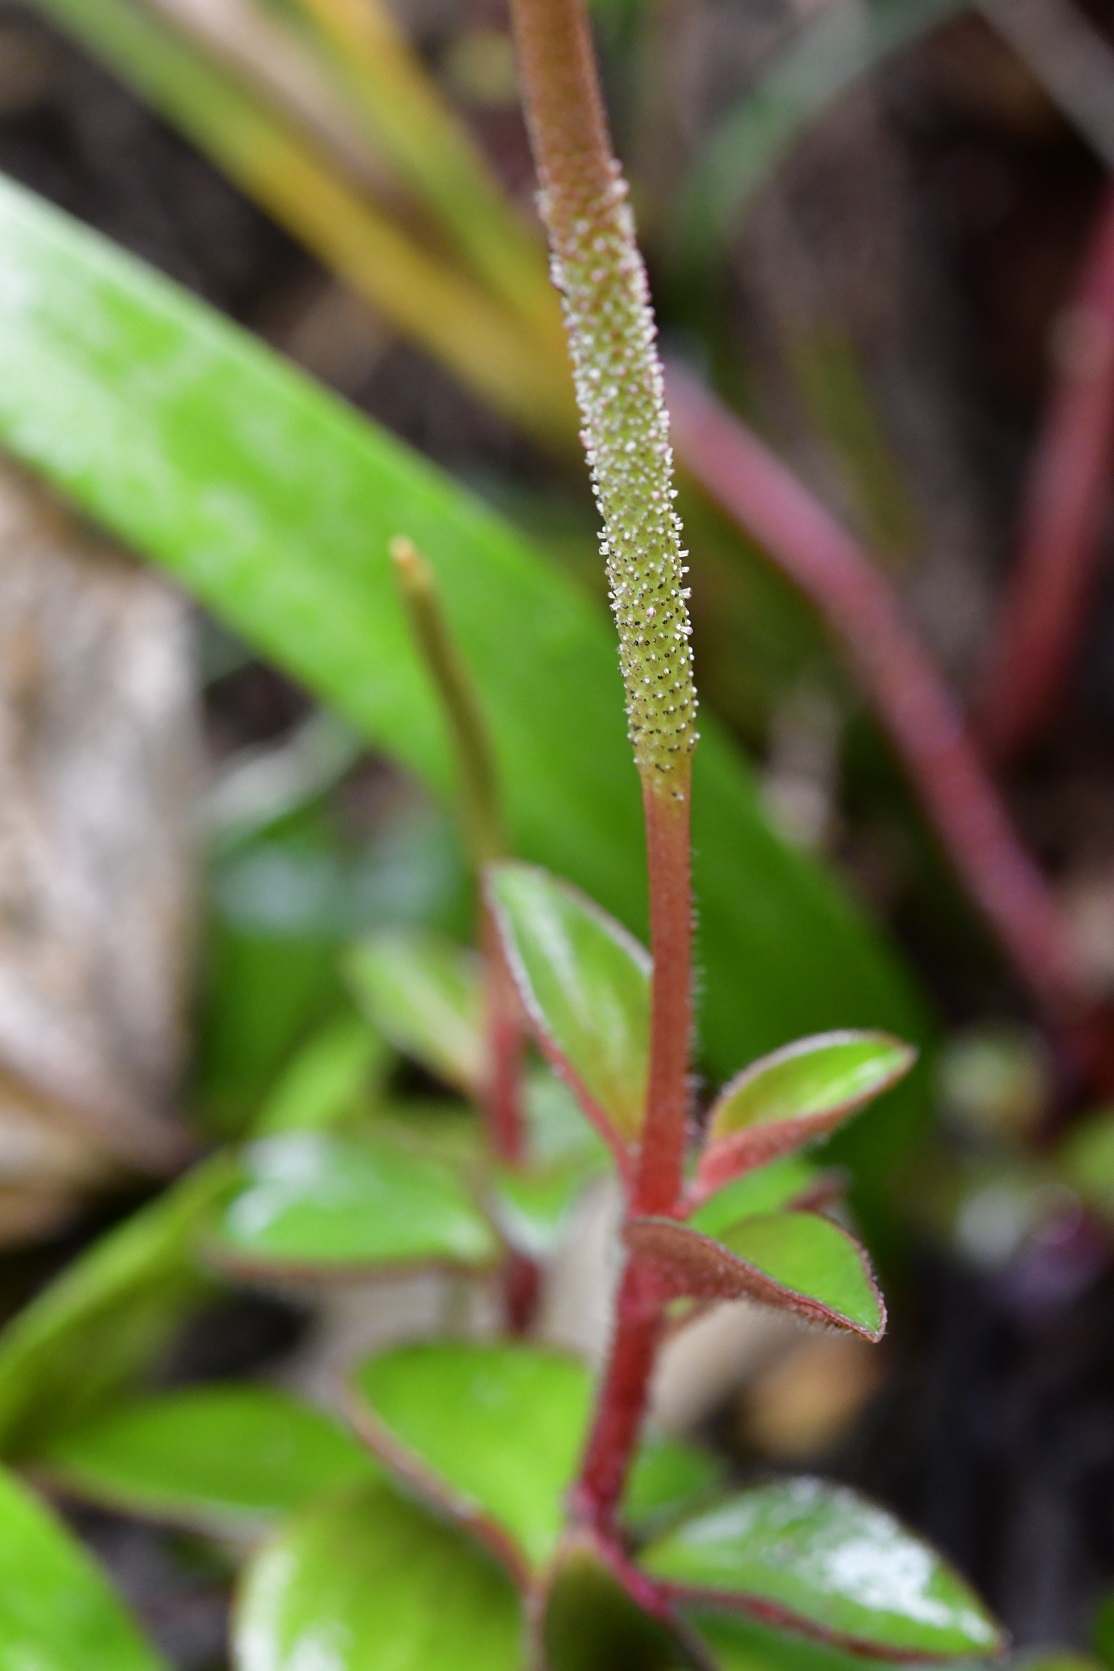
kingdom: Plantae
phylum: Tracheophyta
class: Magnoliopsida
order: Piperales
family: Piperaceae
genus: Peperomia
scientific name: Peperomia consoquitlana
